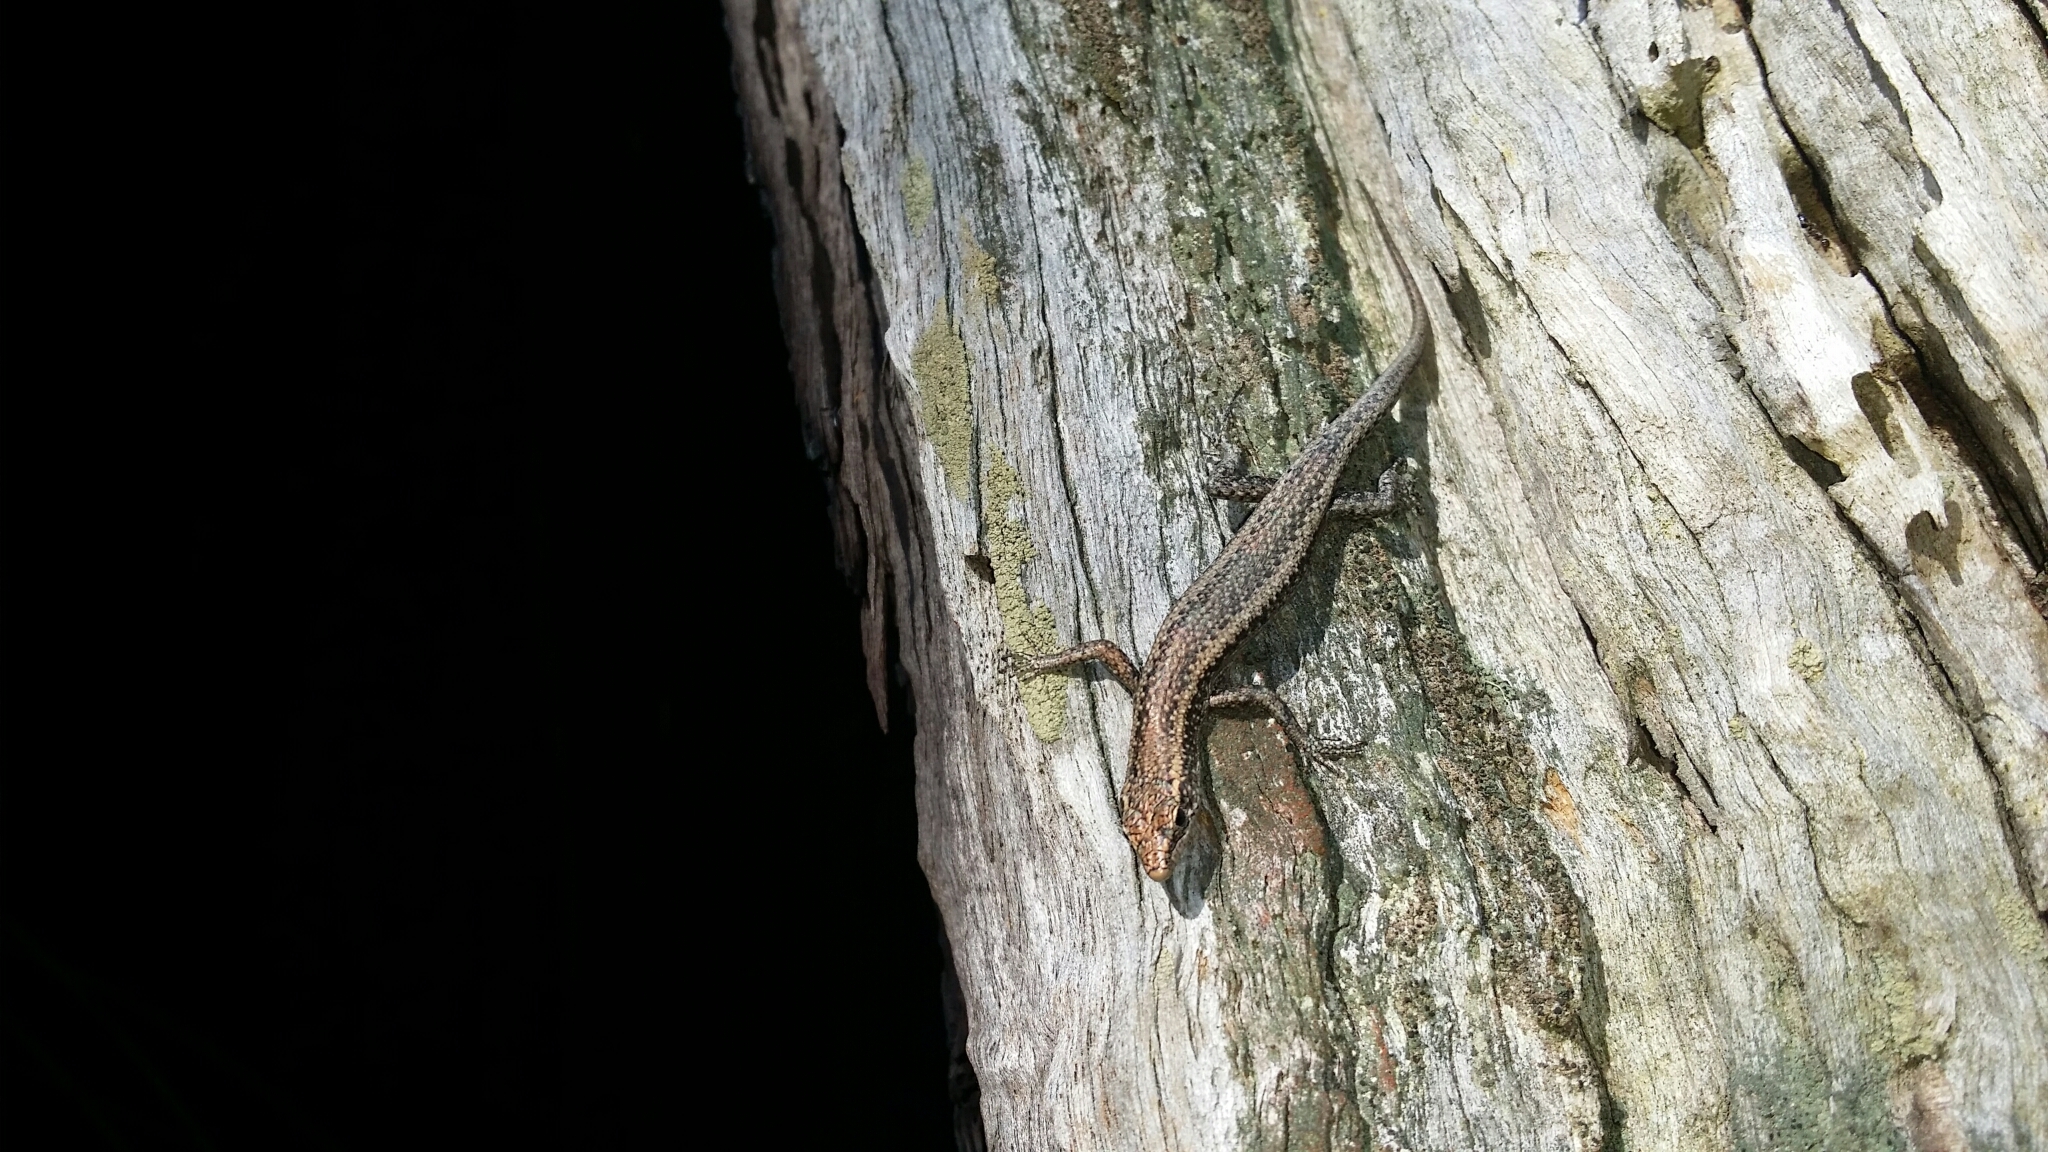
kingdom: Animalia
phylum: Chordata
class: Squamata
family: Scincidae
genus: Cryptoblepharus
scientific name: Cryptoblepharus buchananii
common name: Buchanan's snake-eyed skink
